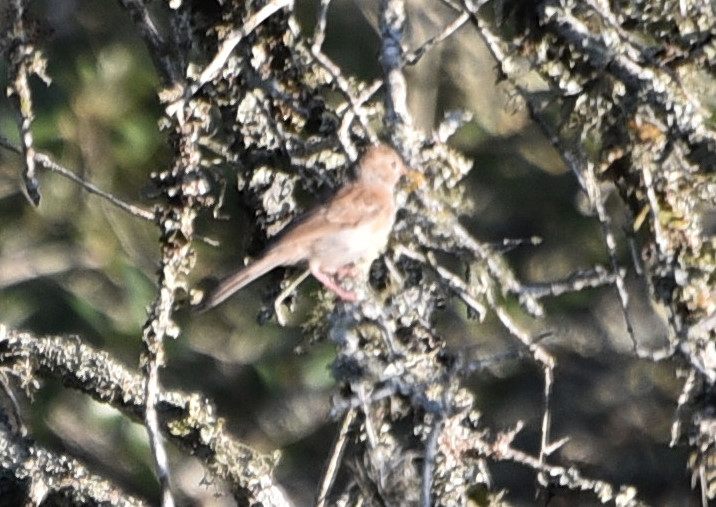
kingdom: Animalia
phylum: Chordata
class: Aves
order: Passeriformes
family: Passerellidae
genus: Spizella
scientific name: Spizella pusilla
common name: Field sparrow
